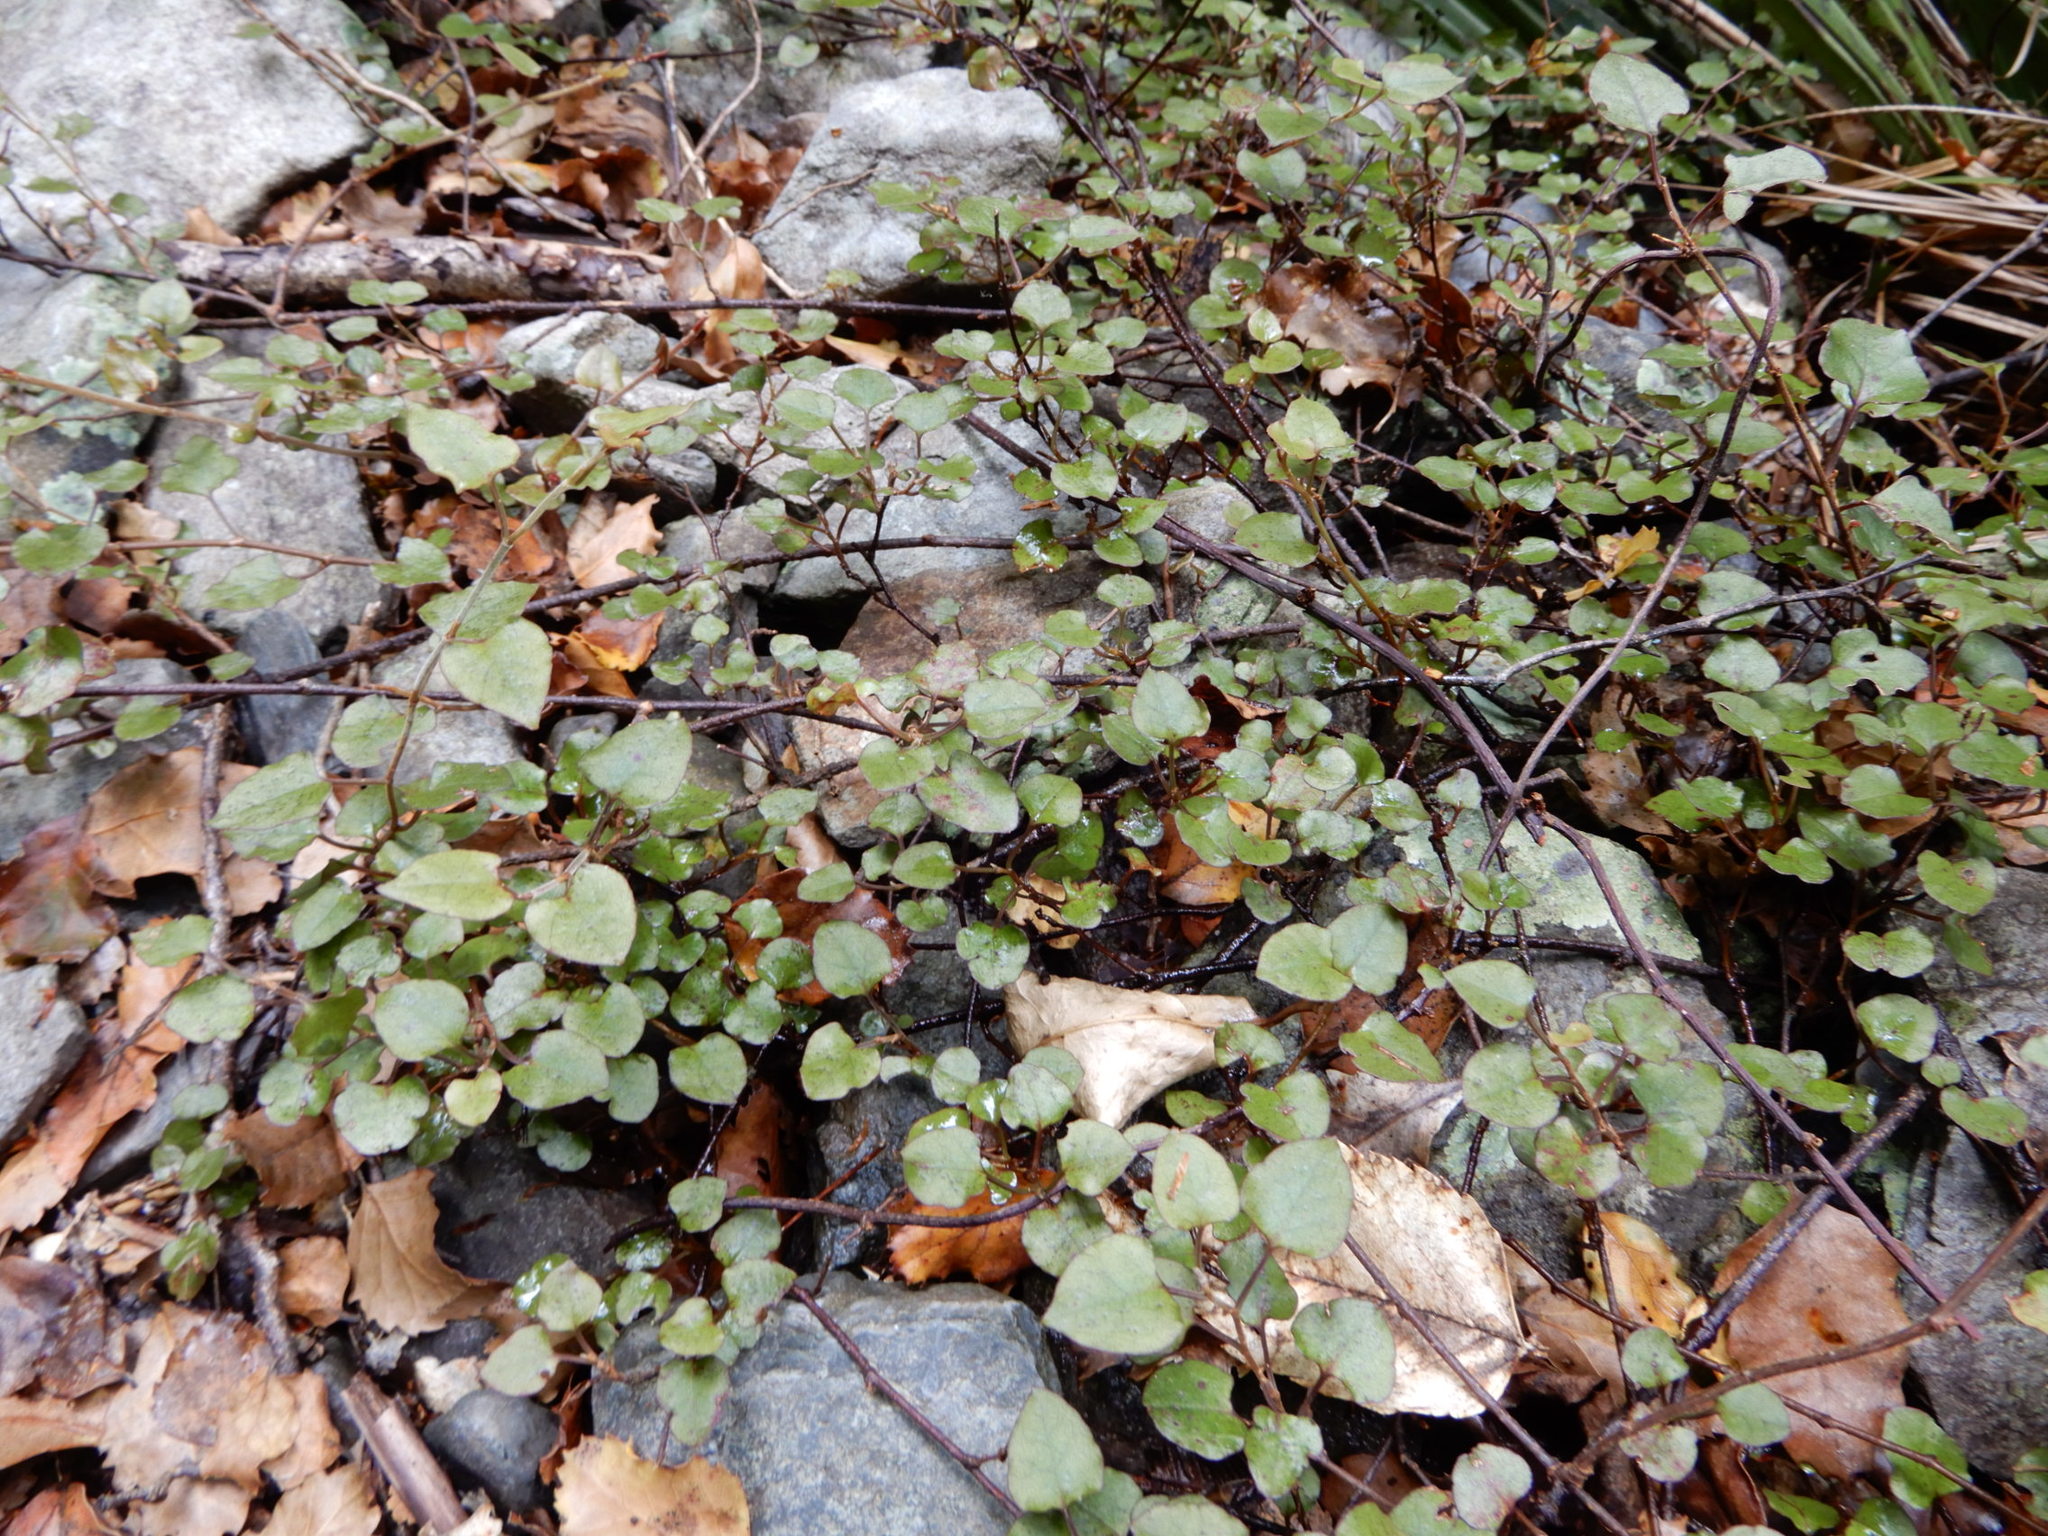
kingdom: Plantae
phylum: Tracheophyta
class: Magnoliopsida
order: Caryophyllales
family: Polygonaceae
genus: Muehlenbeckia
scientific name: Muehlenbeckia australis
